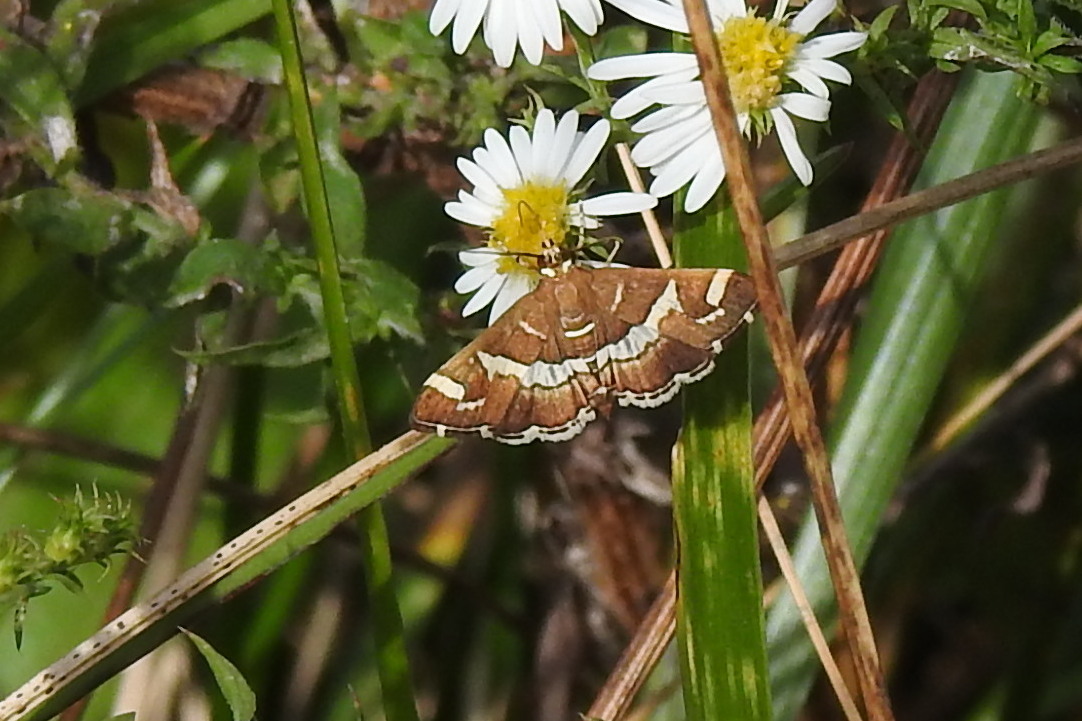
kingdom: Animalia
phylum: Arthropoda
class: Insecta
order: Lepidoptera
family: Crambidae
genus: Spoladea
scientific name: Spoladea recurvalis
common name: Beet webworm moth
